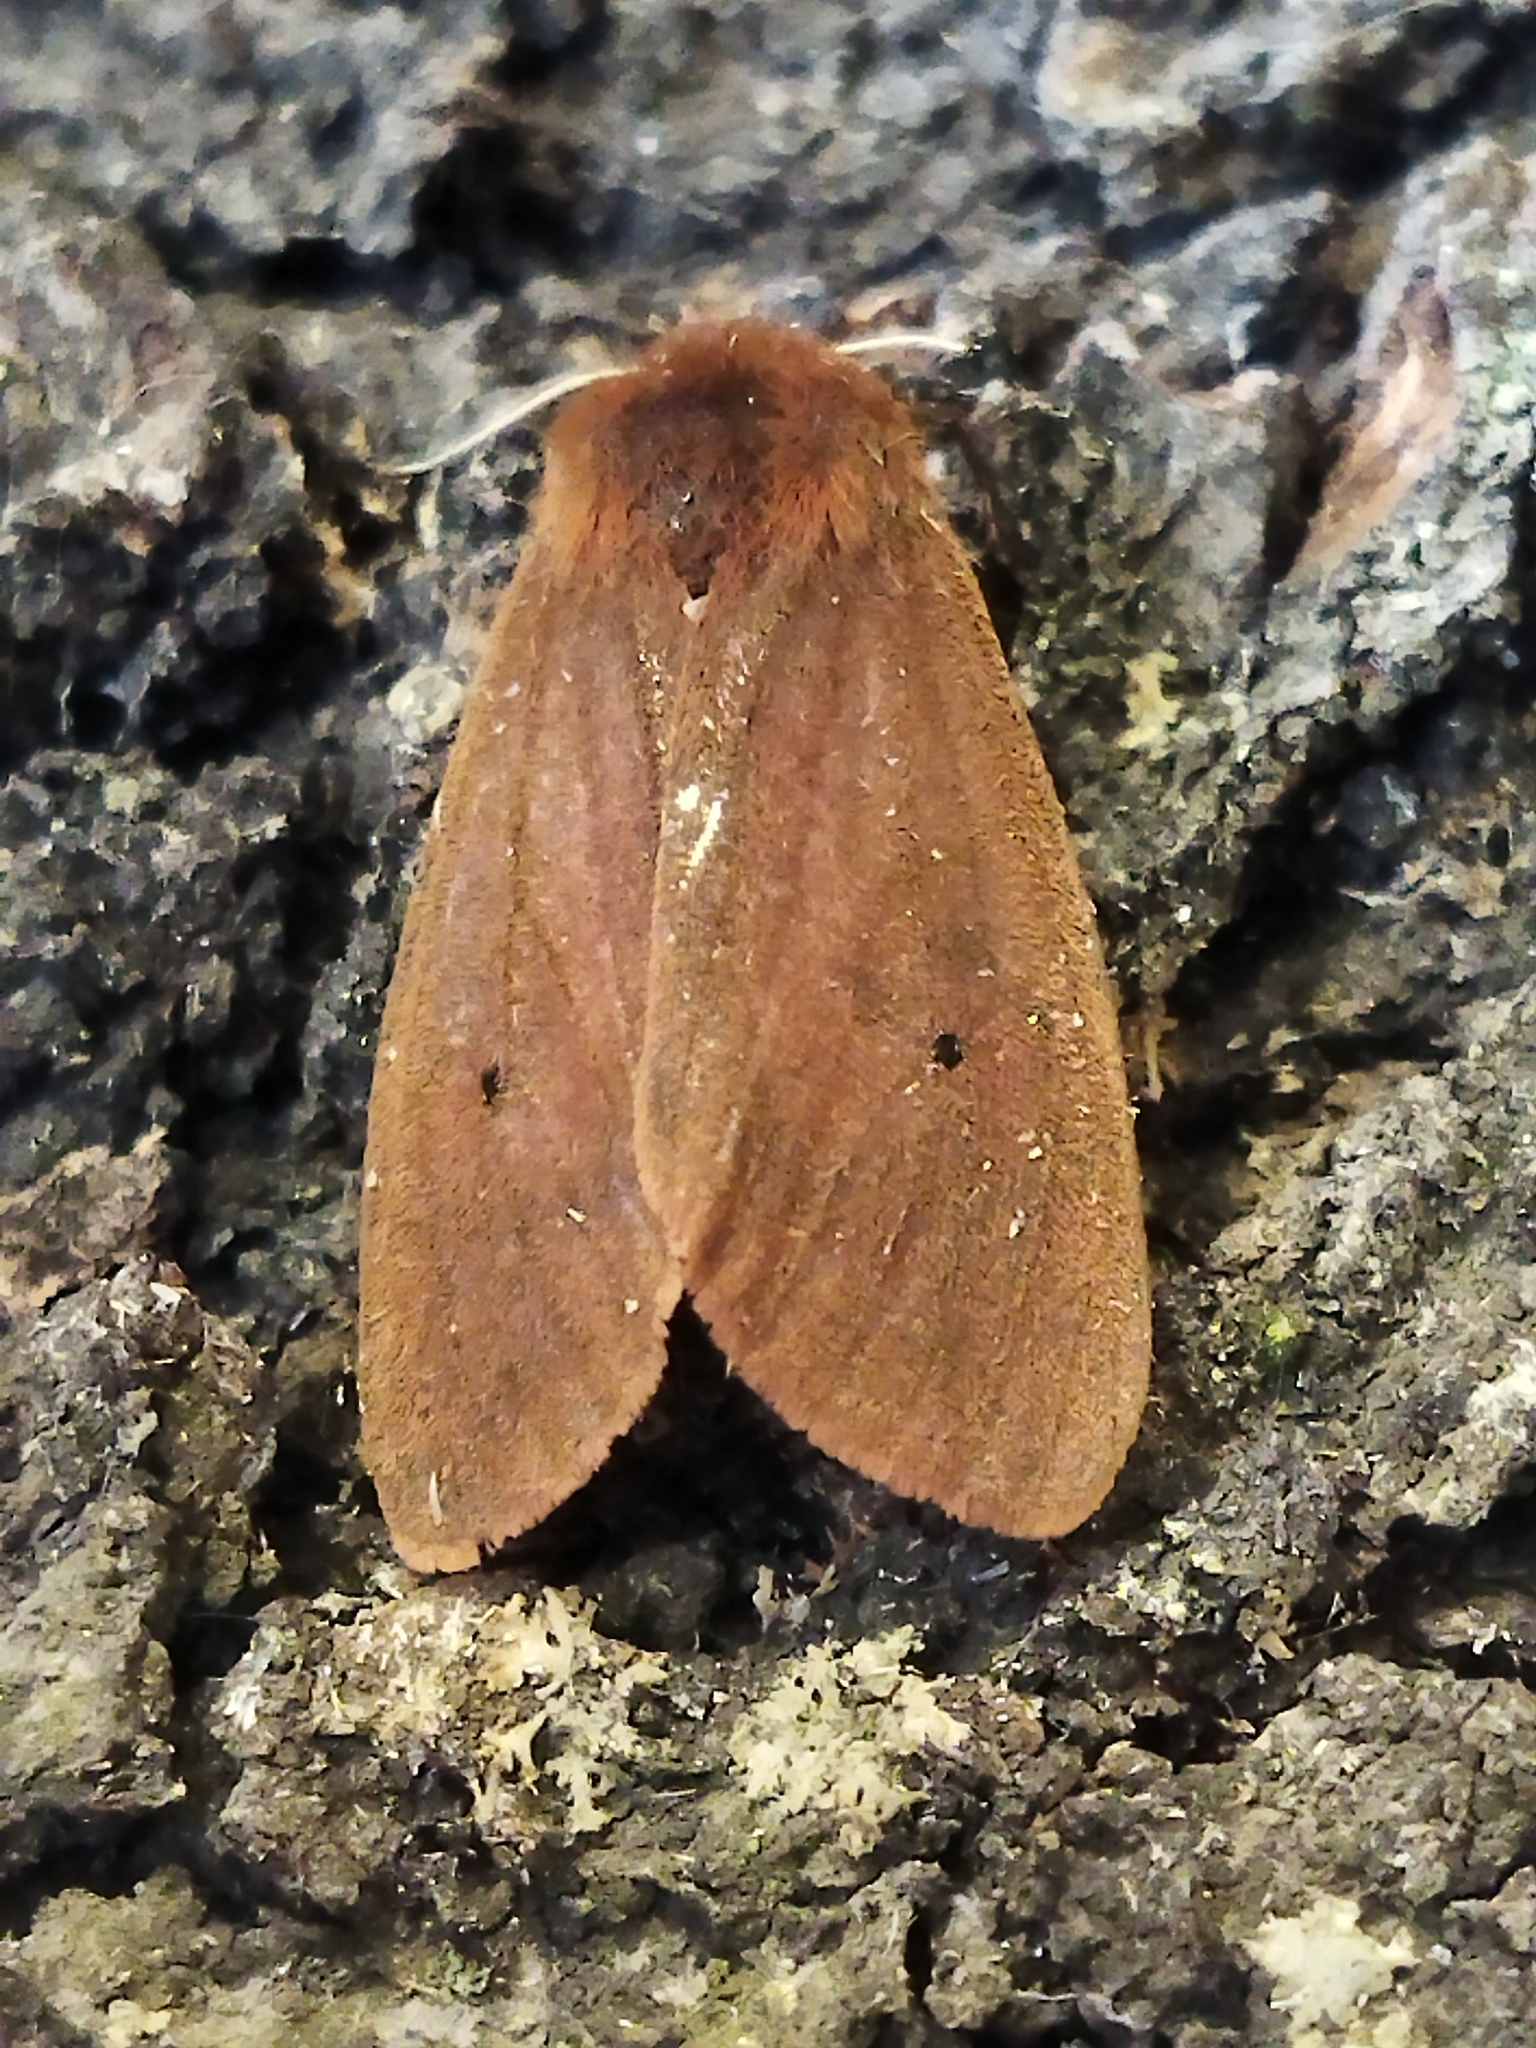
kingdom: Animalia
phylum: Arthropoda
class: Insecta
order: Lepidoptera
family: Erebidae
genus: Phragmatobia
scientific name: Phragmatobia fuliginosa
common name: Ruby tiger
